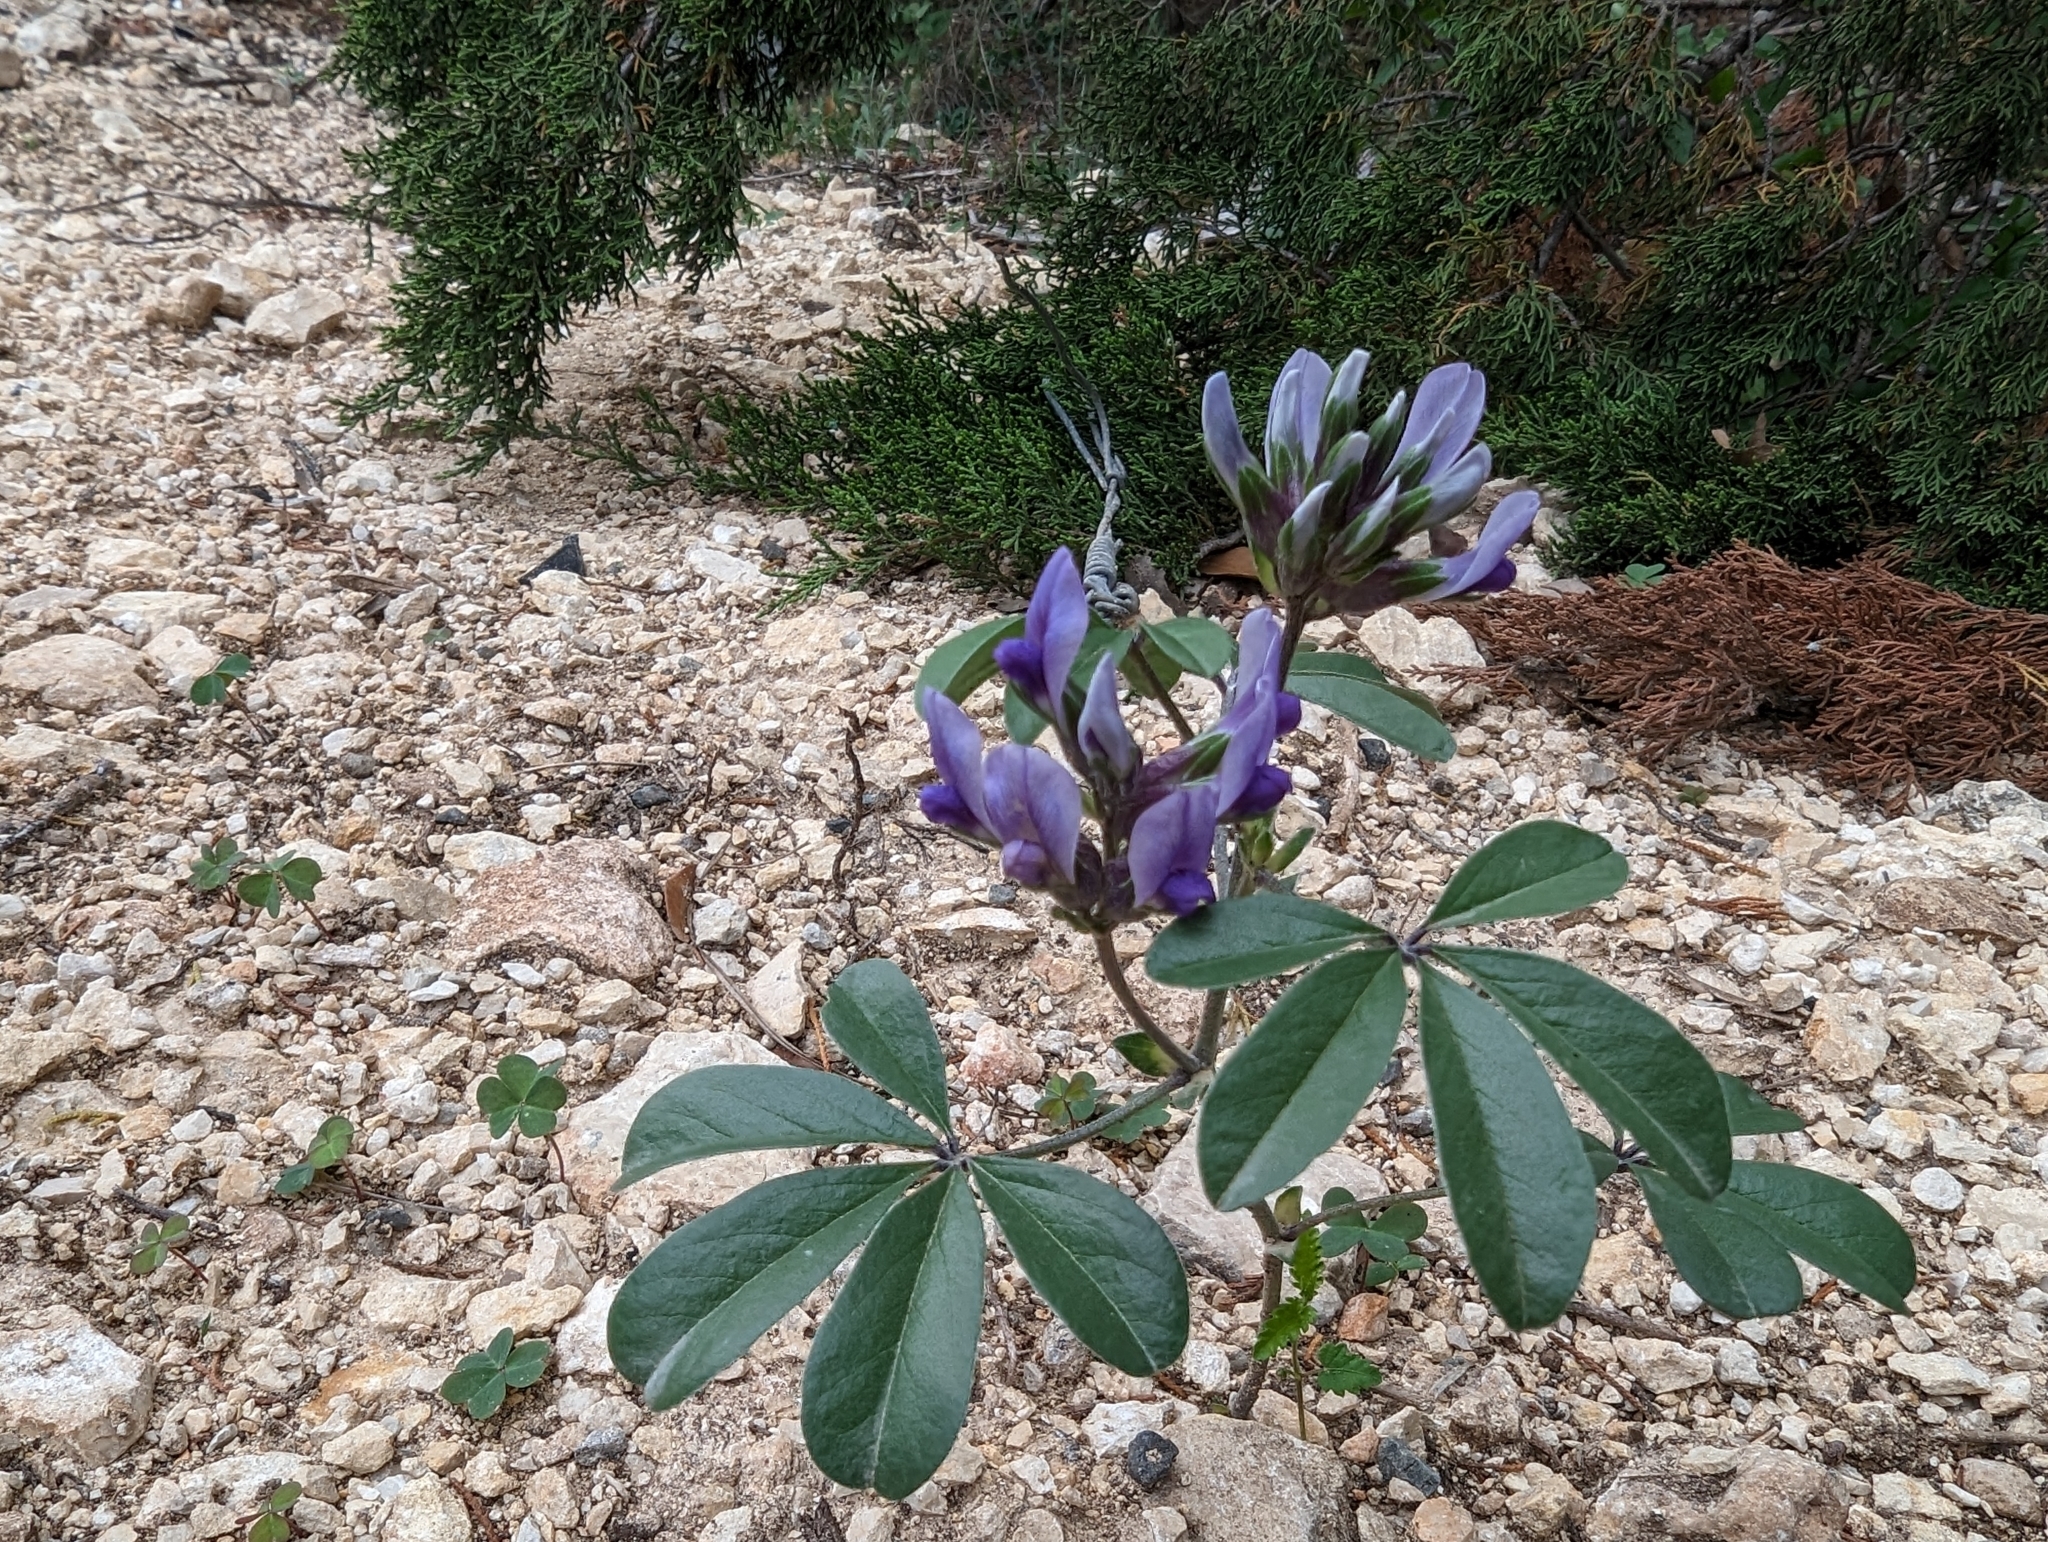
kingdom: Plantae
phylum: Tracheophyta
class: Magnoliopsida
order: Fabales
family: Fabaceae
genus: Pediomelum
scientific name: Pediomelum latestipulatum
